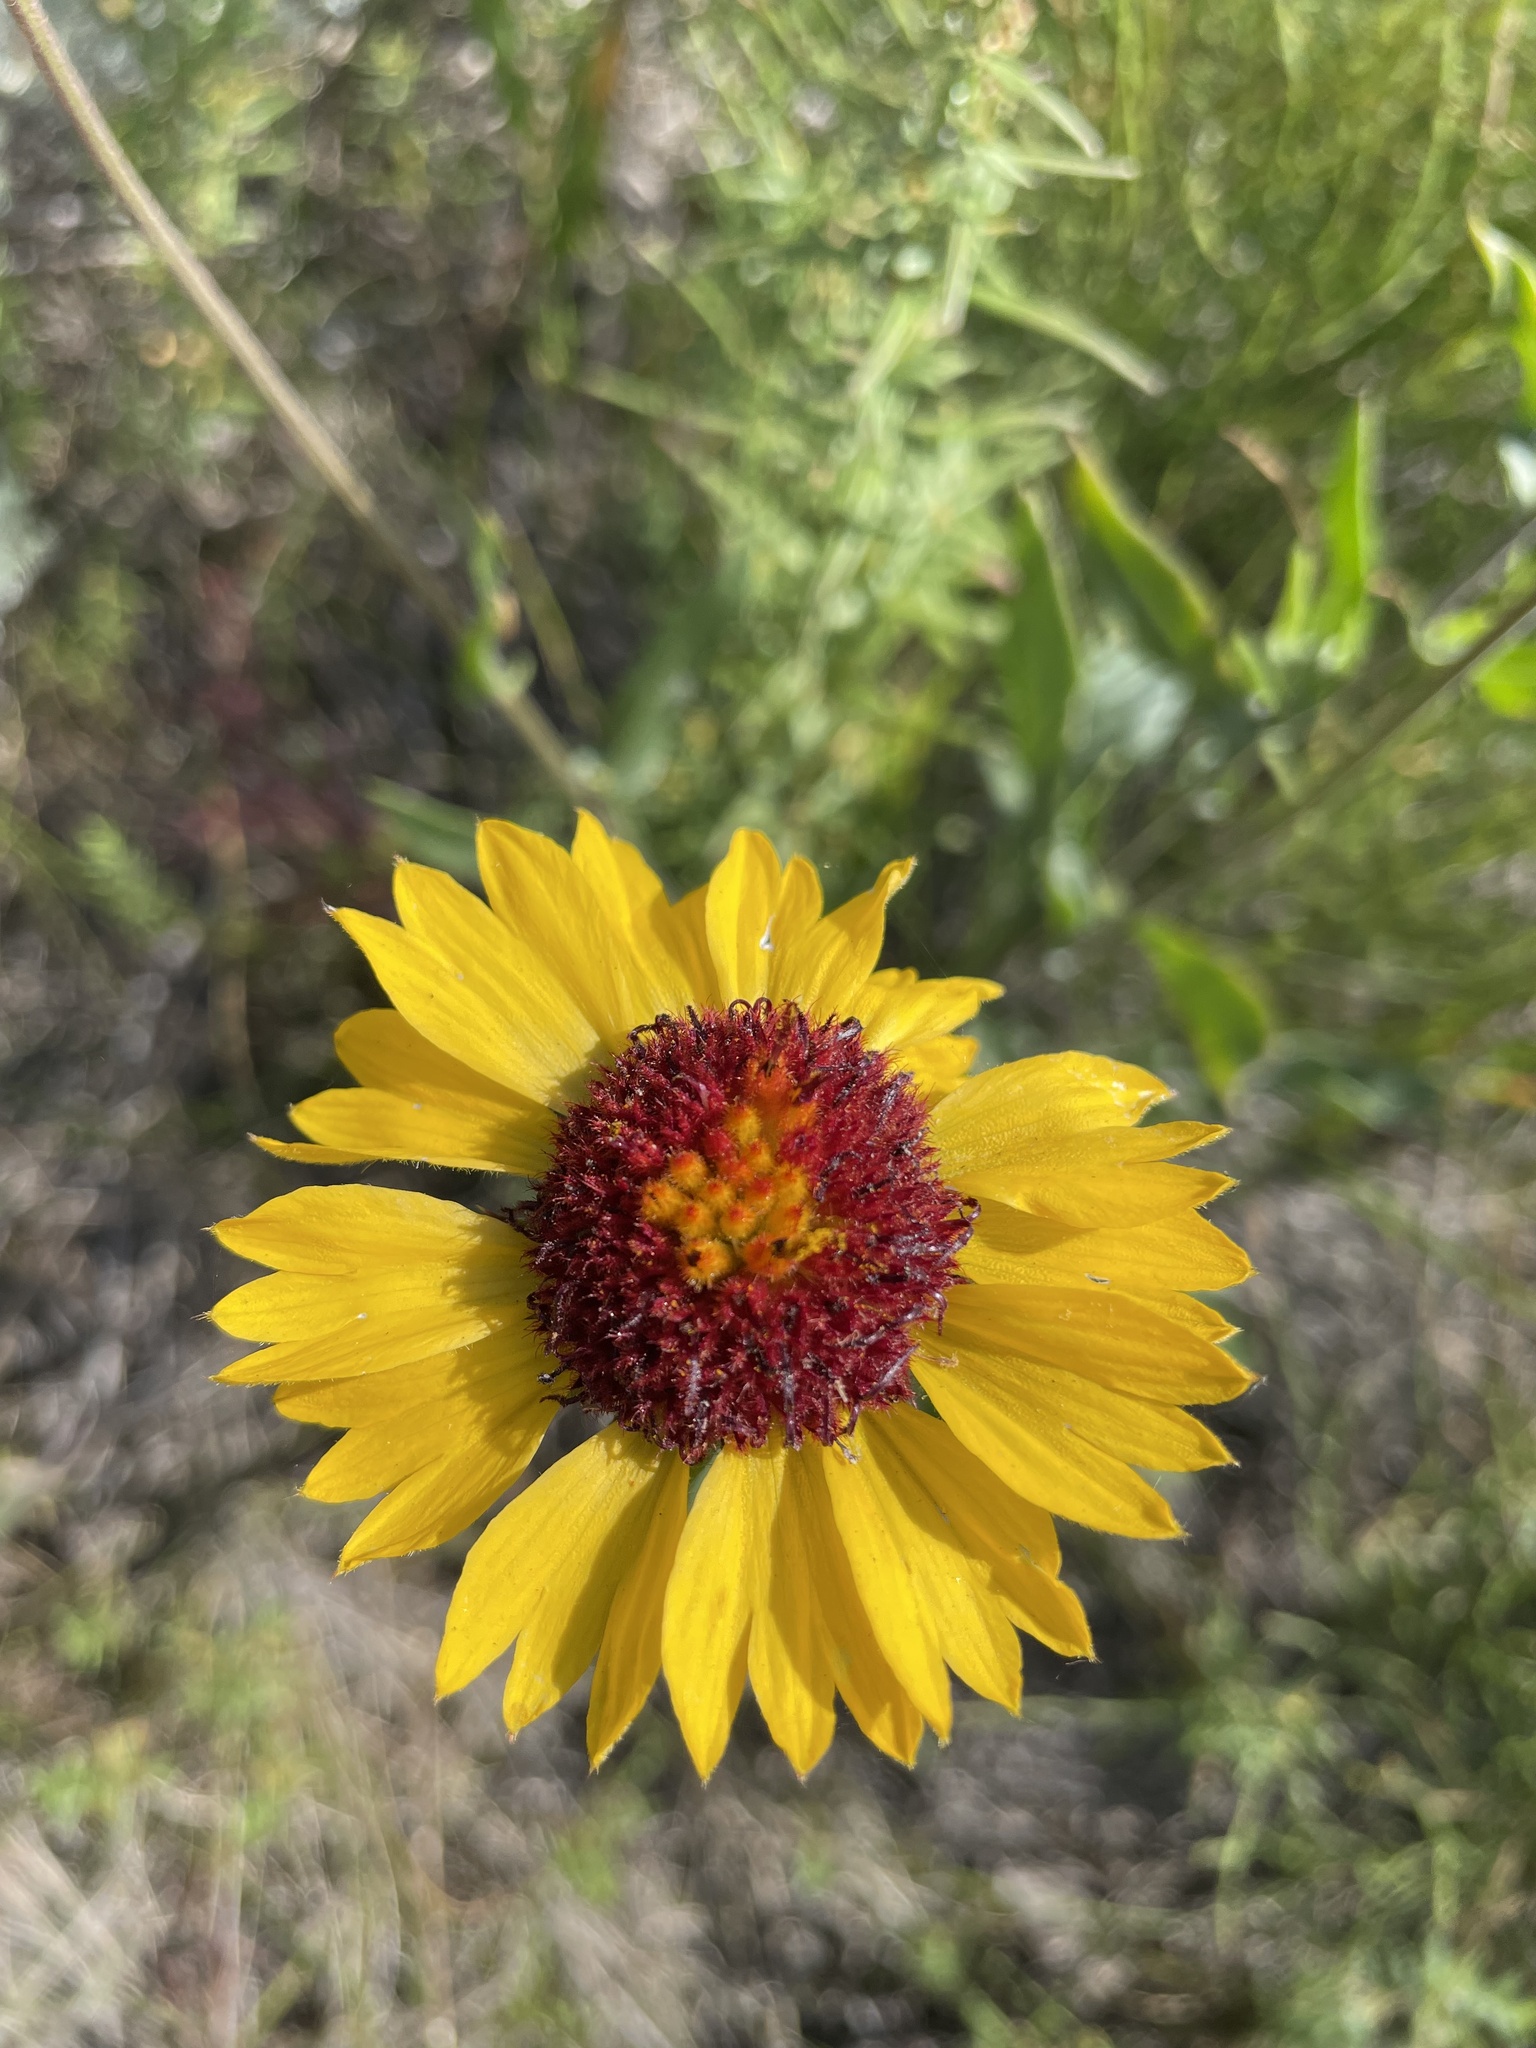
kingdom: Plantae
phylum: Tracheophyta
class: Magnoliopsida
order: Asterales
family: Asteraceae
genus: Gaillardia
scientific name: Gaillardia aristata
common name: Blanket-flower
